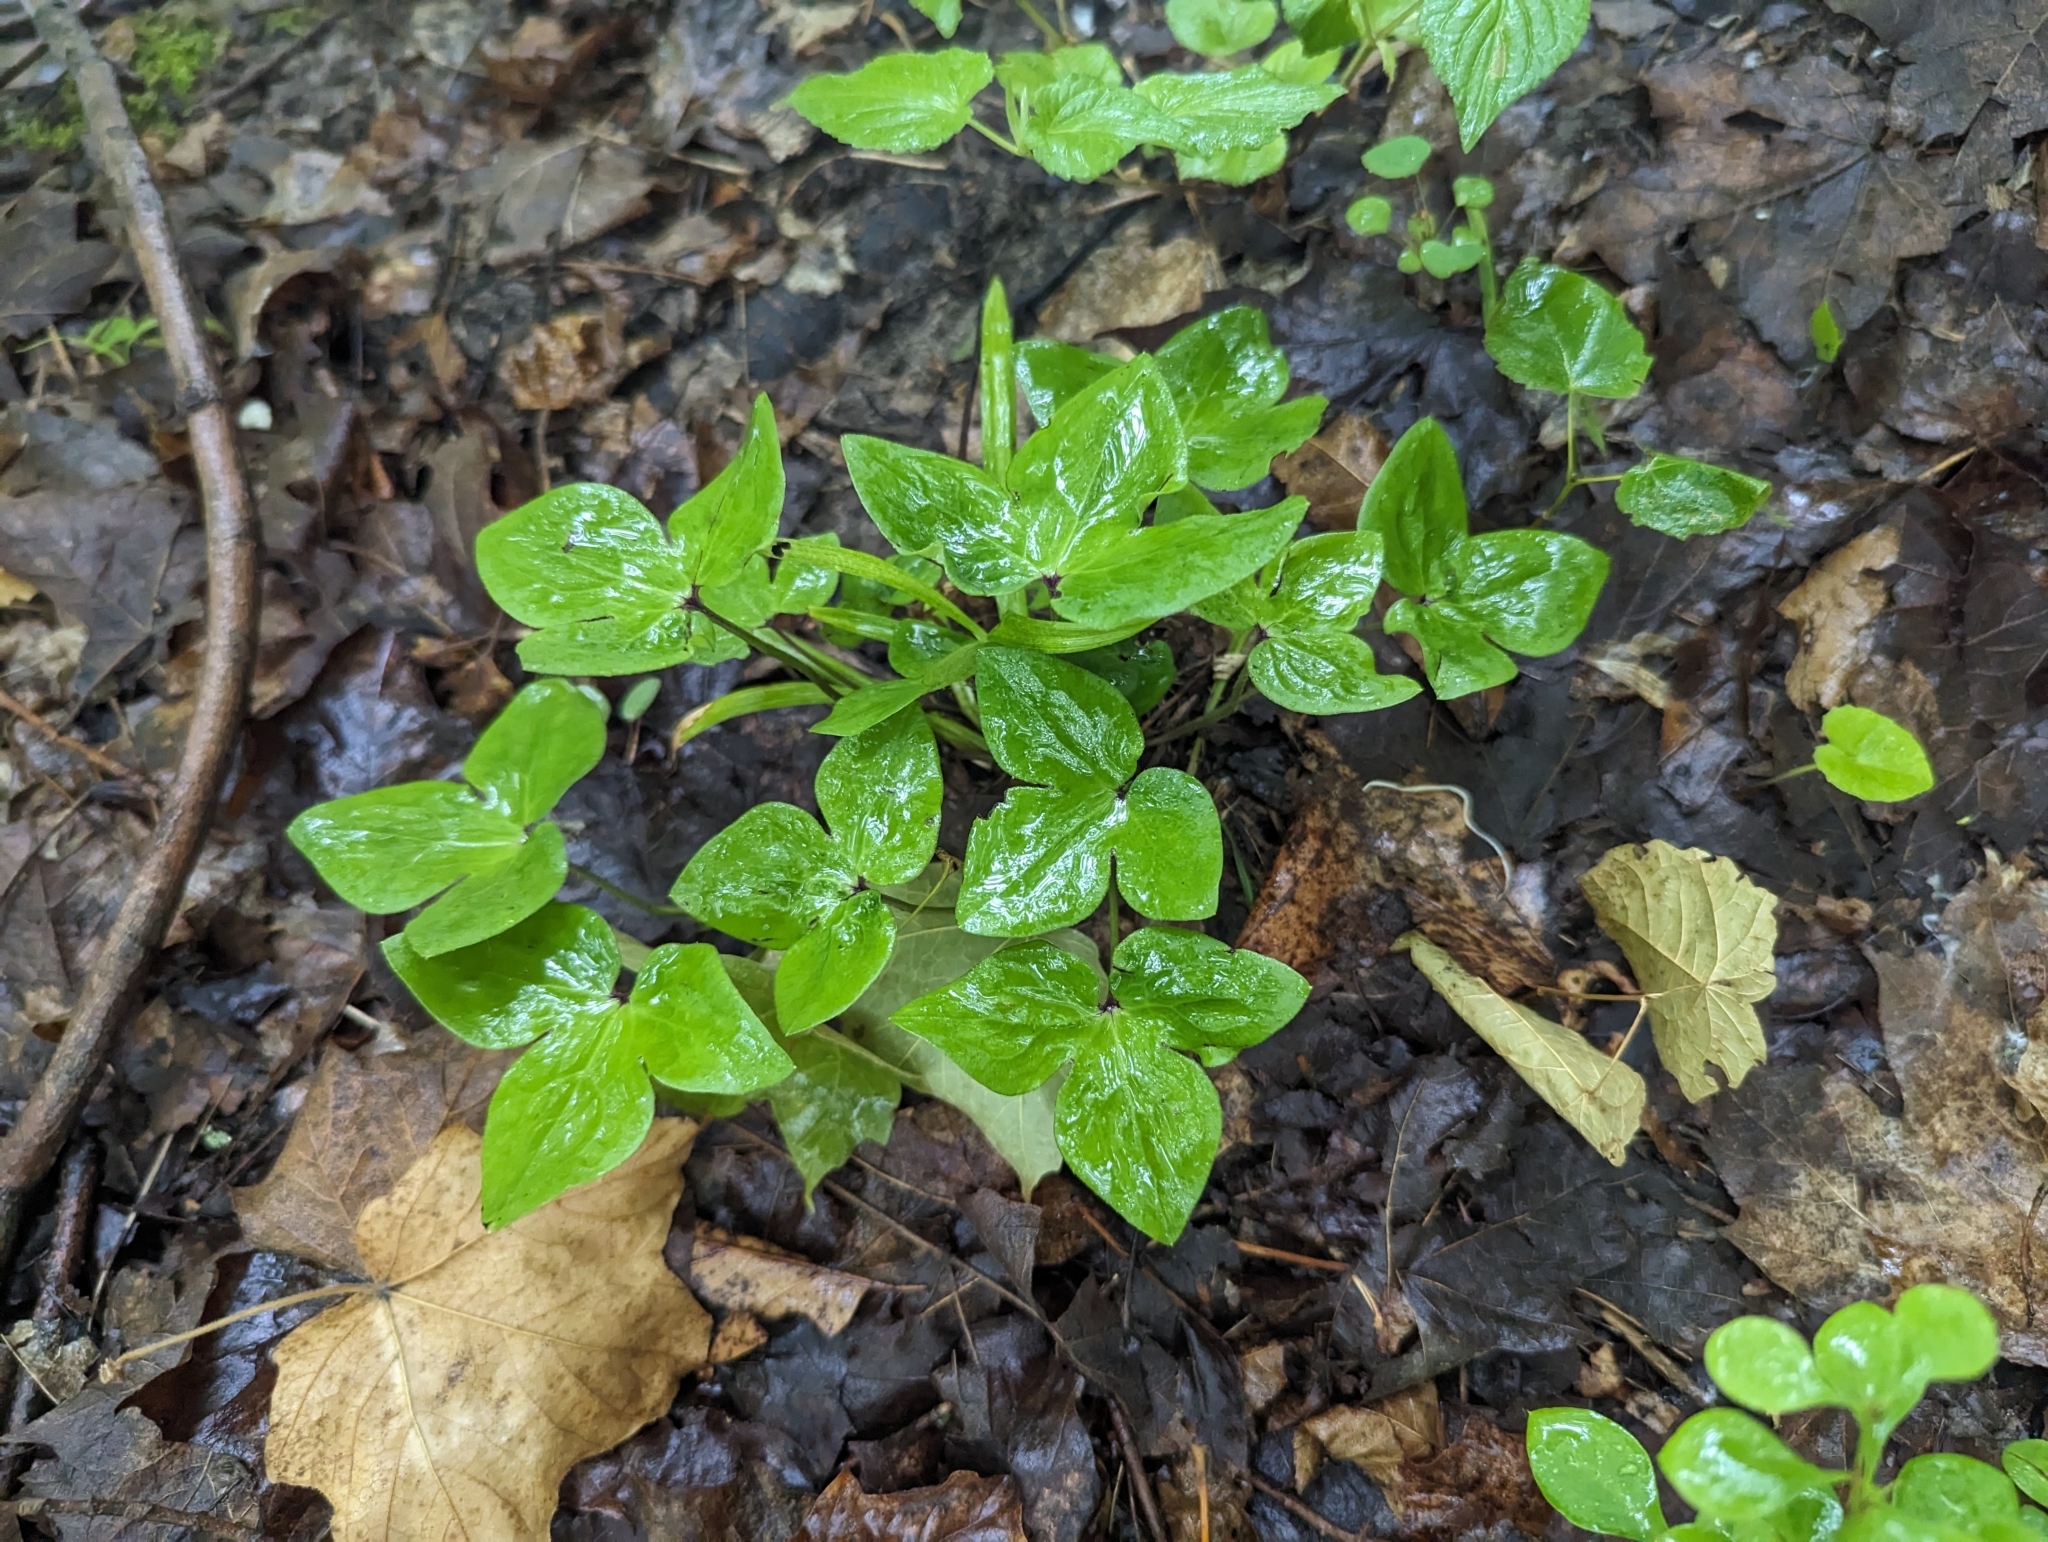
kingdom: Plantae
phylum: Tracheophyta
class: Magnoliopsida
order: Ranunculales
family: Ranunculaceae
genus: Hepatica
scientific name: Hepatica acutiloba
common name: Sharp-lobed hepatica
